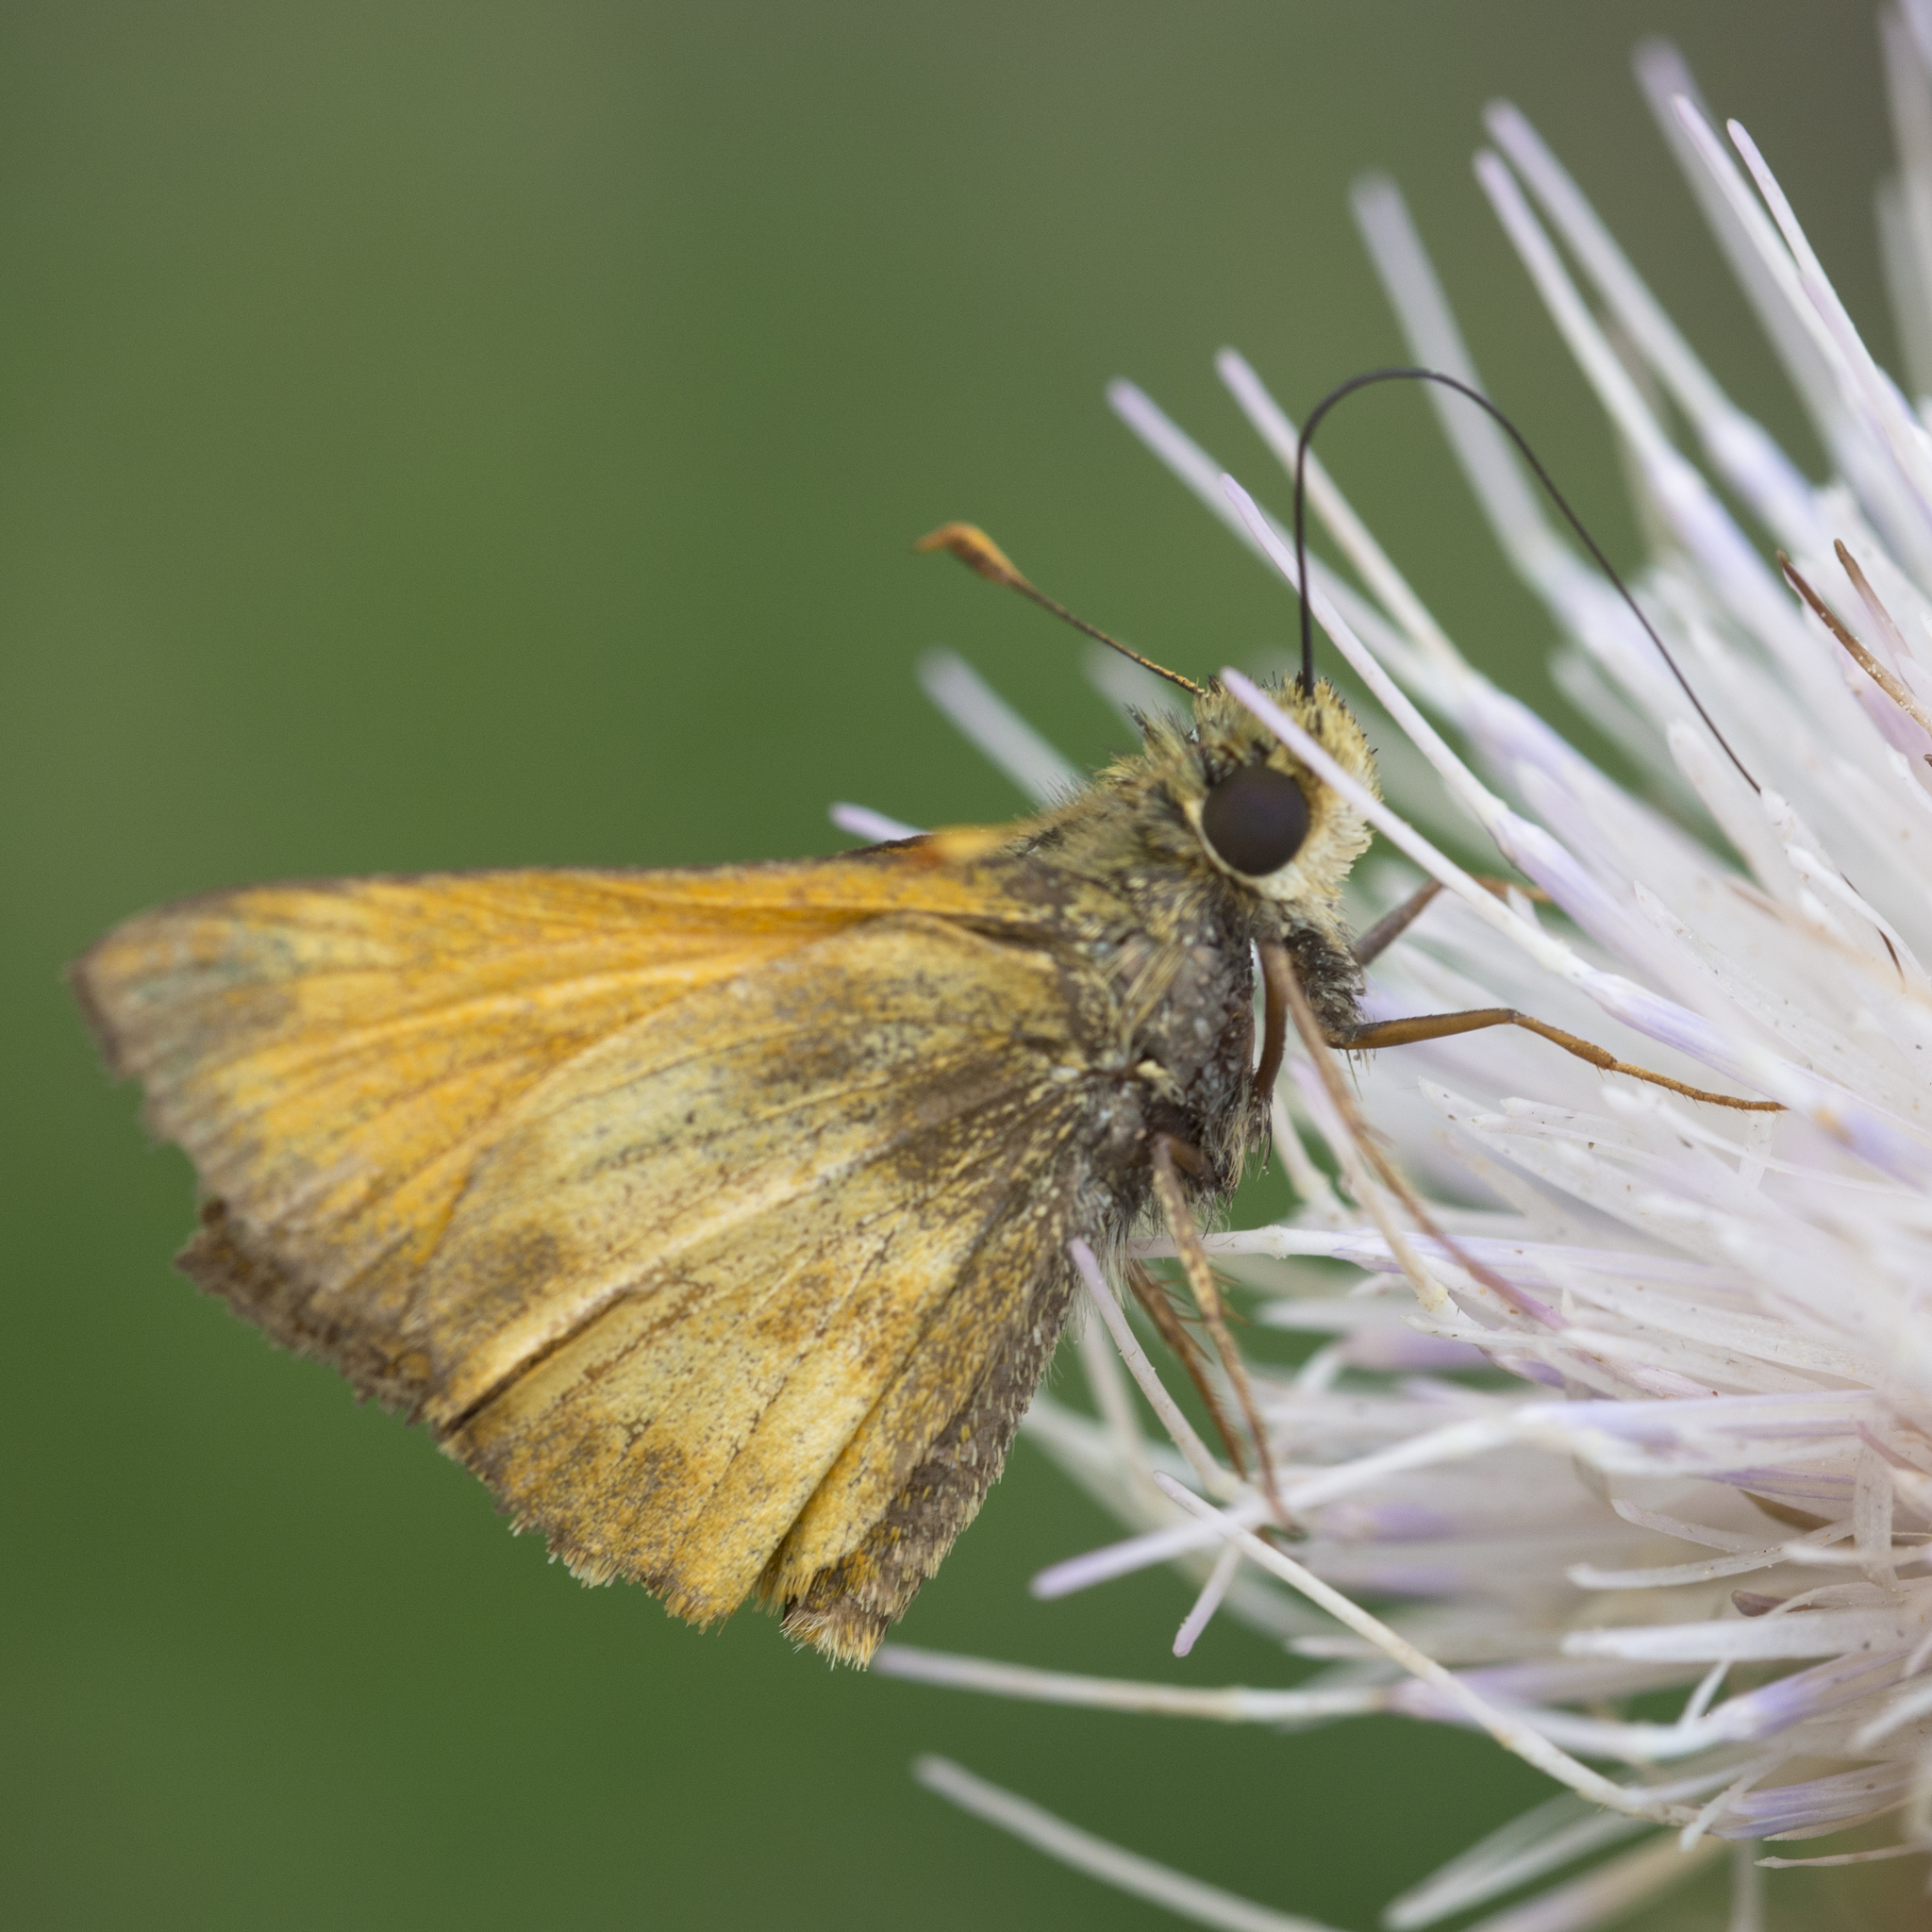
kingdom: Animalia
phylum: Arthropoda
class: Insecta
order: Lepidoptera
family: Hesperiidae
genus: Lon
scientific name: Lon taxiles
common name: Taxiles skipper
